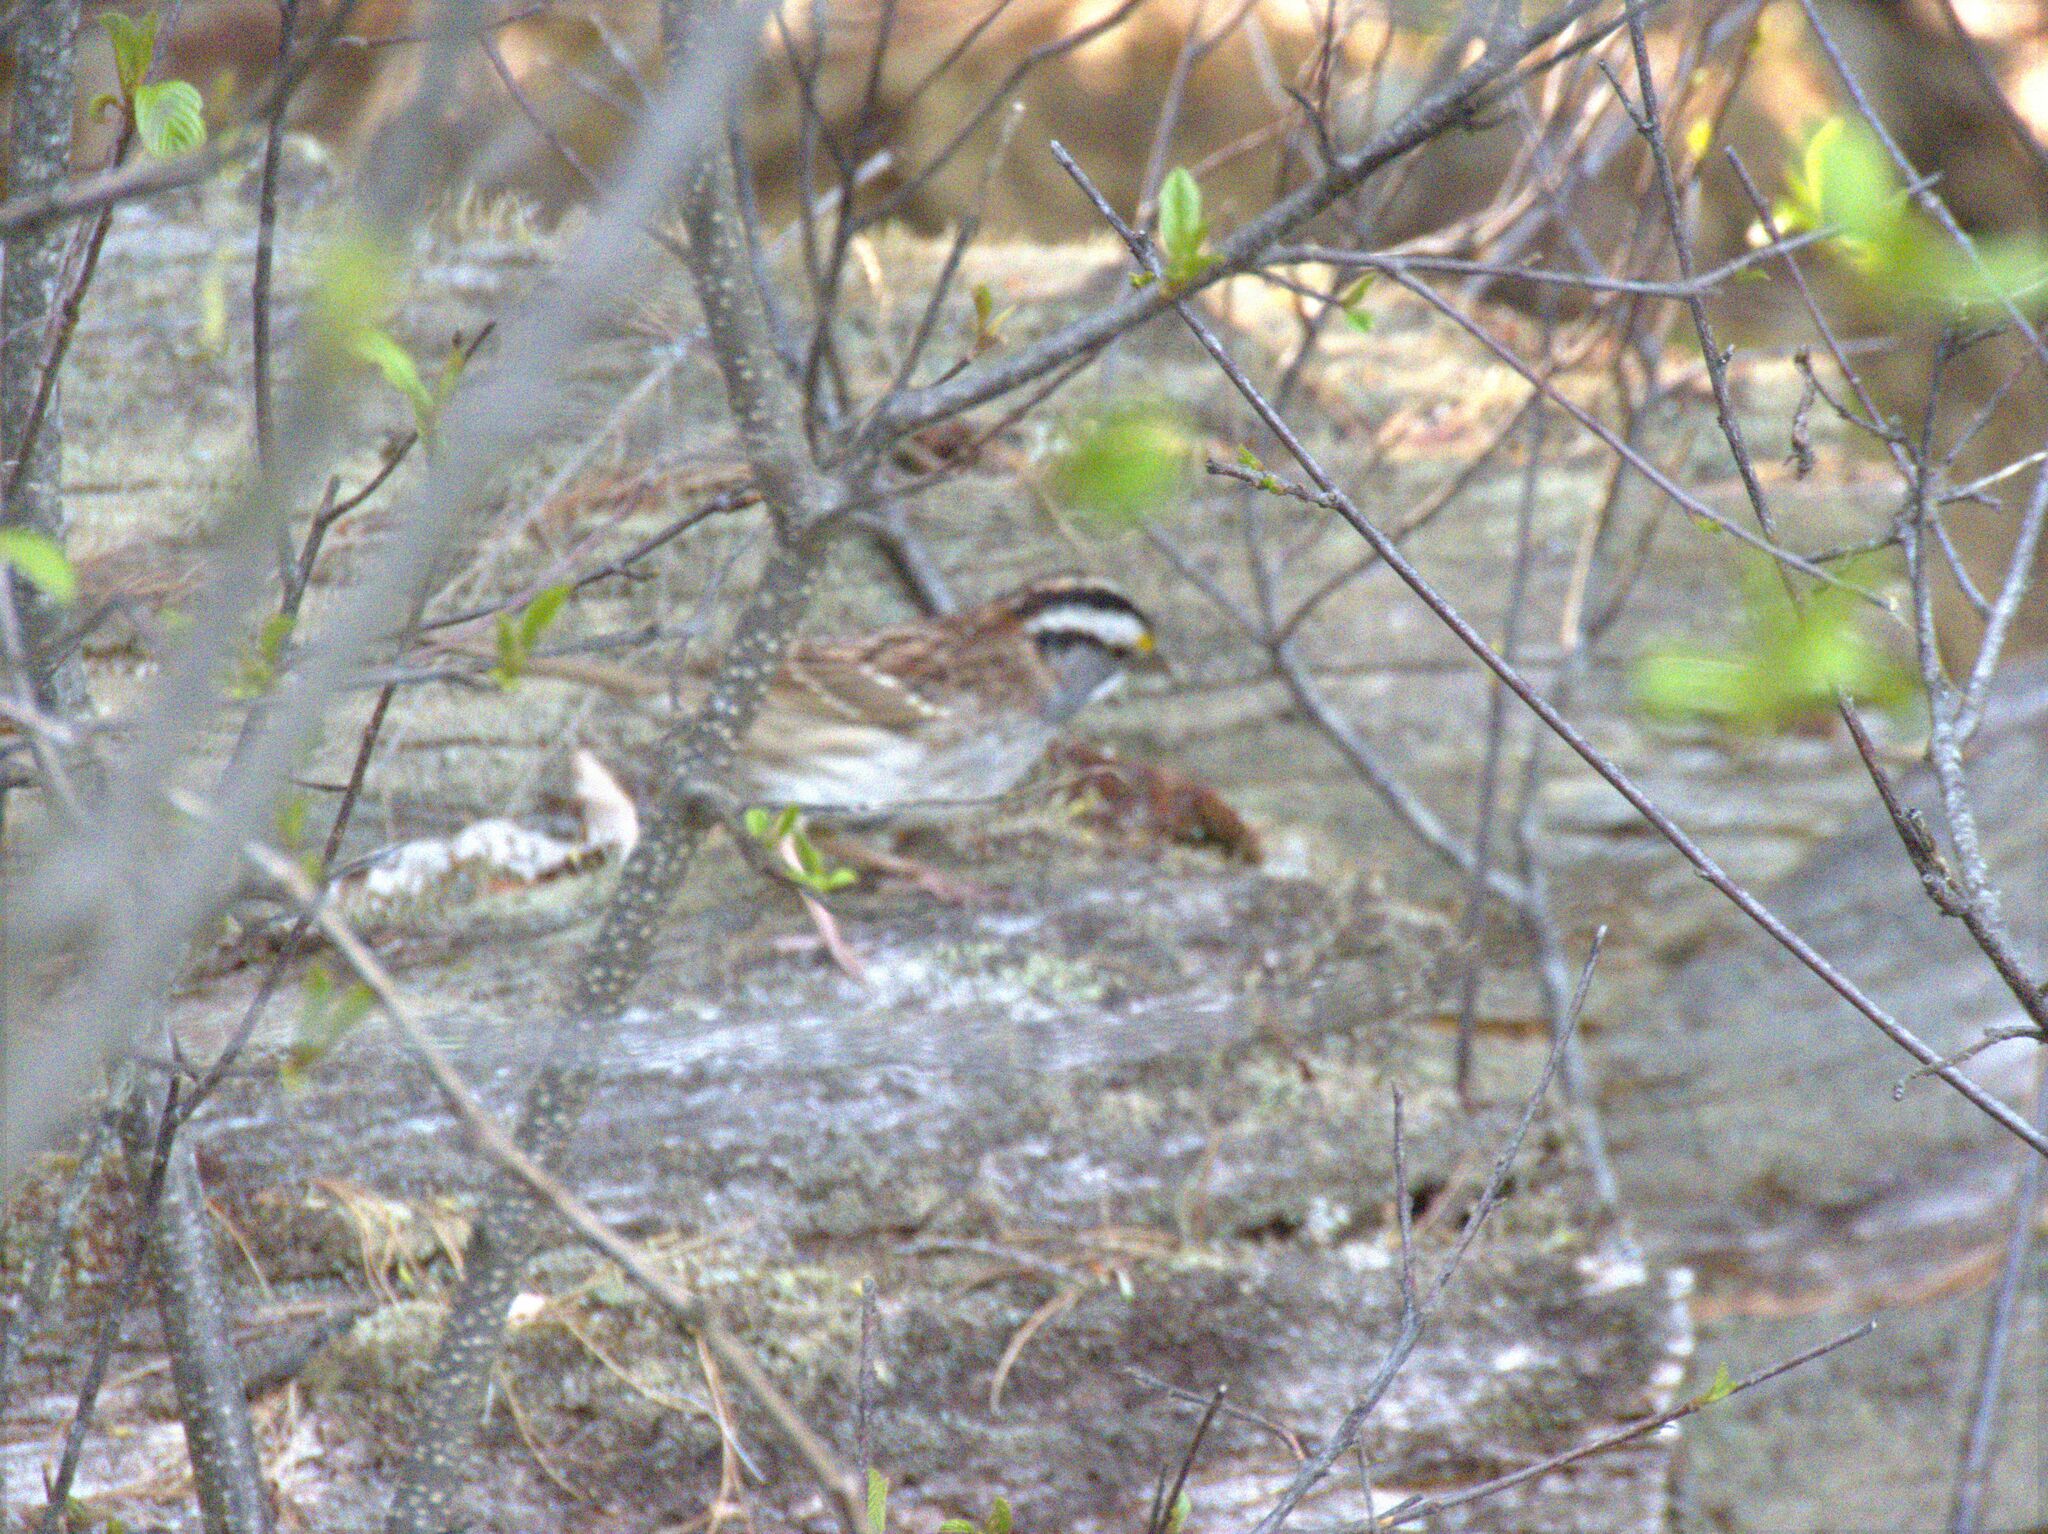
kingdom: Animalia
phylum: Chordata
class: Aves
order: Passeriformes
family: Passerellidae
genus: Zonotrichia
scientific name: Zonotrichia albicollis
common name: White-throated sparrow
